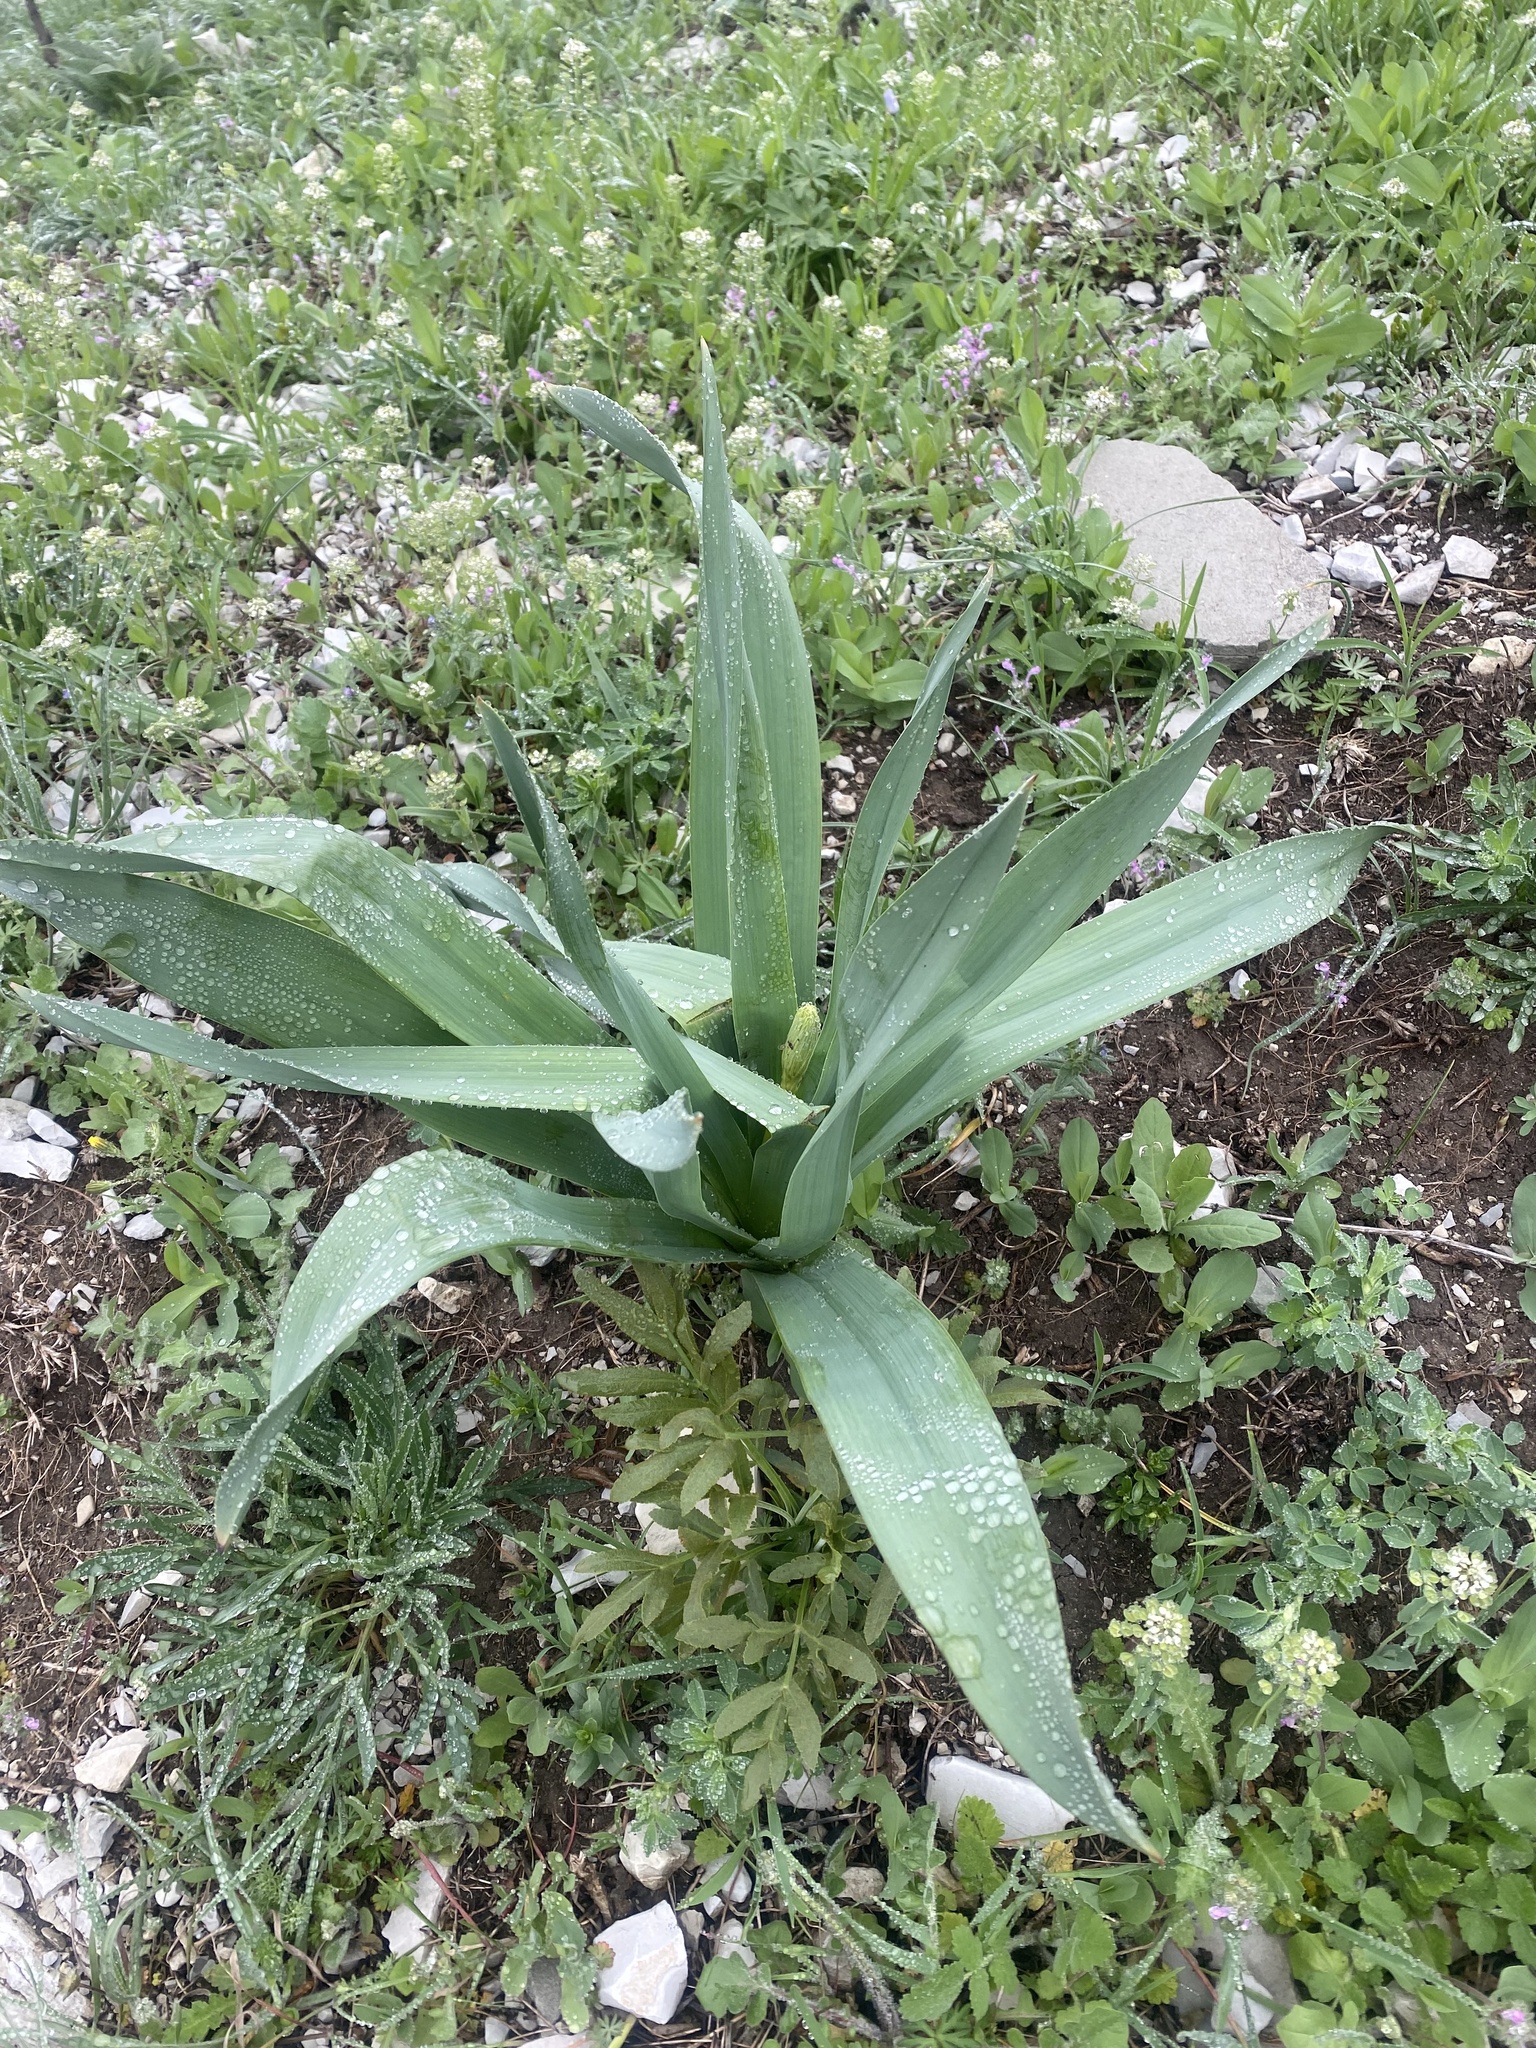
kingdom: Plantae
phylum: Tracheophyta
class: Liliopsida
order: Asparagales
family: Asphodelaceae
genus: Eremurus
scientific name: Eremurus spectabilis
